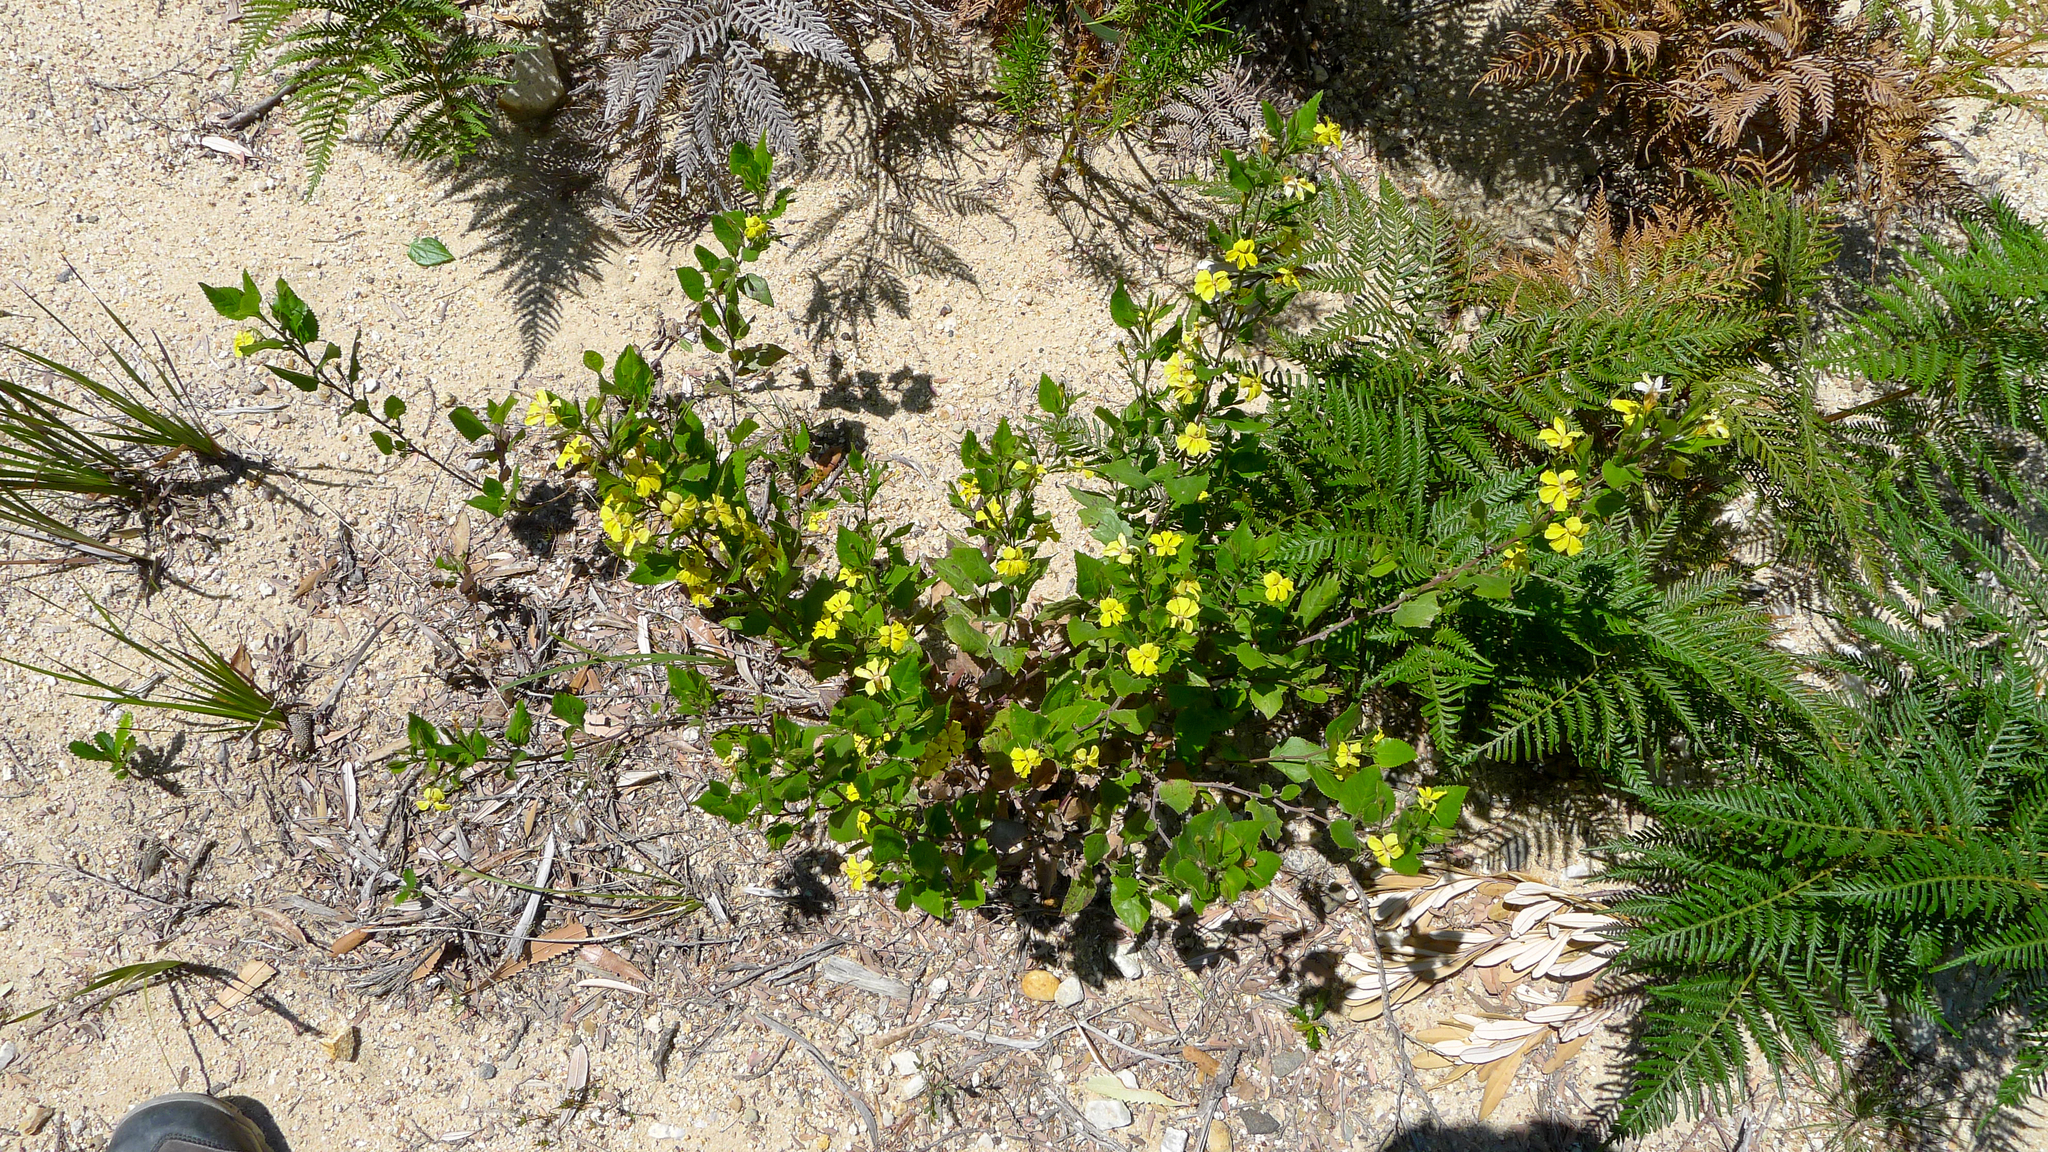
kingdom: Plantae
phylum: Tracheophyta
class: Magnoliopsida
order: Asterales
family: Goodeniaceae
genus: Goodenia
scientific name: Goodenia ovata
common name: Hop goodenia
